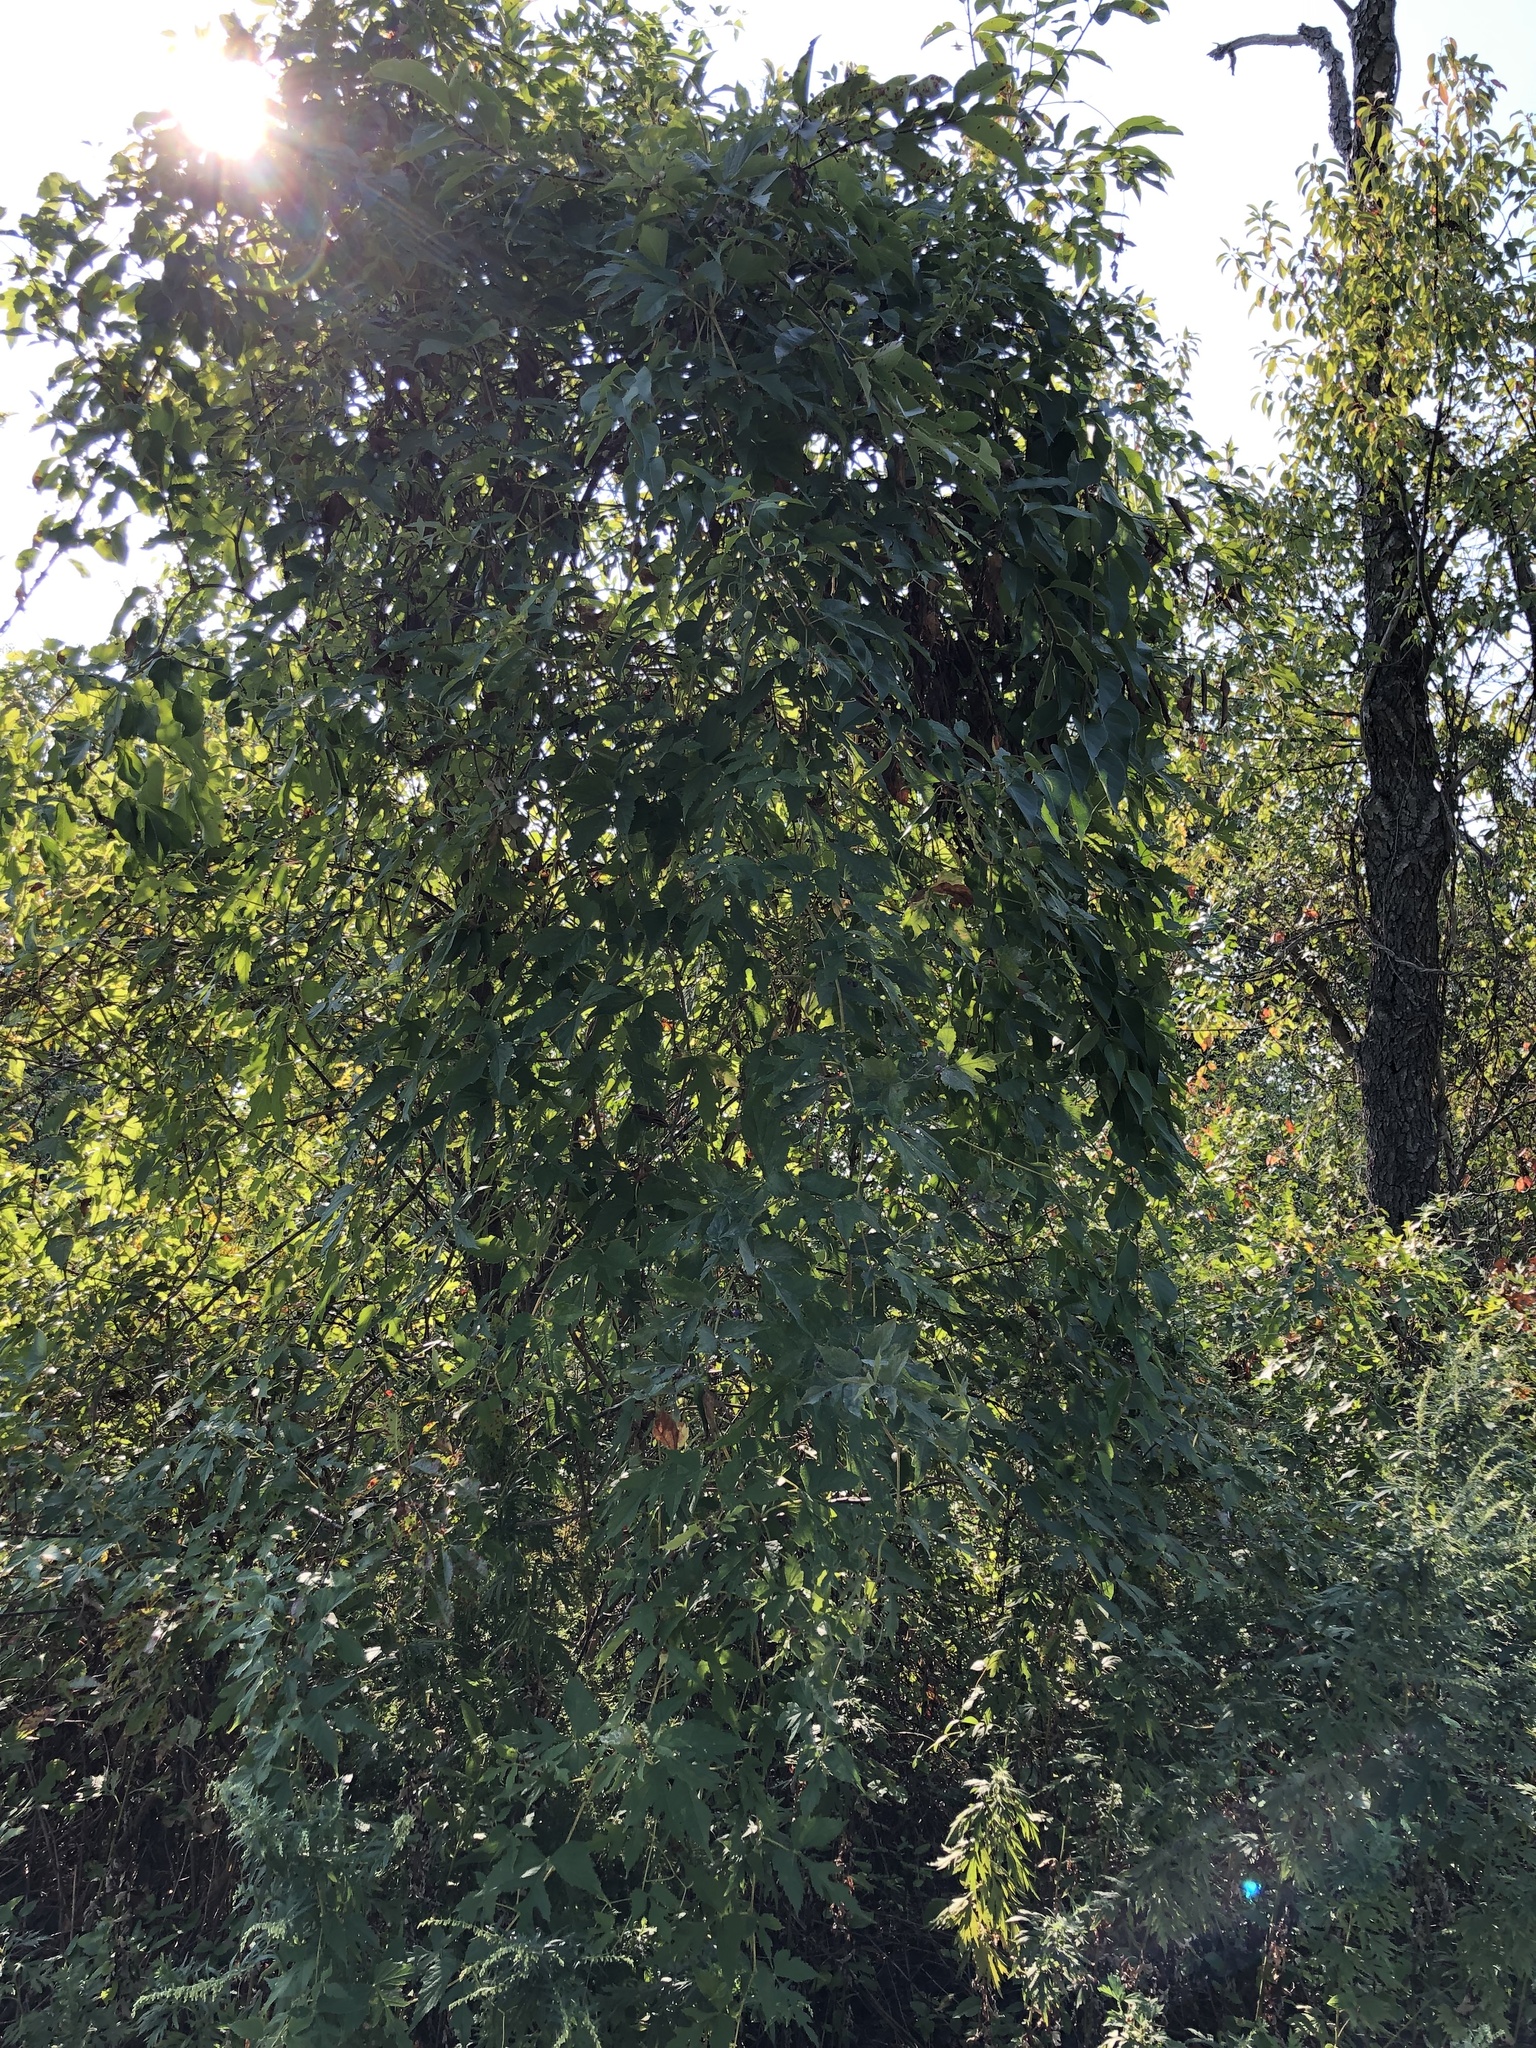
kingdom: Plantae
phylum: Tracheophyta
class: Magnoliopsida
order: Vitales
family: Vitaceae
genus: Ampelopsis
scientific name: Ampelopsis glandulosa
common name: Amur peppervine
